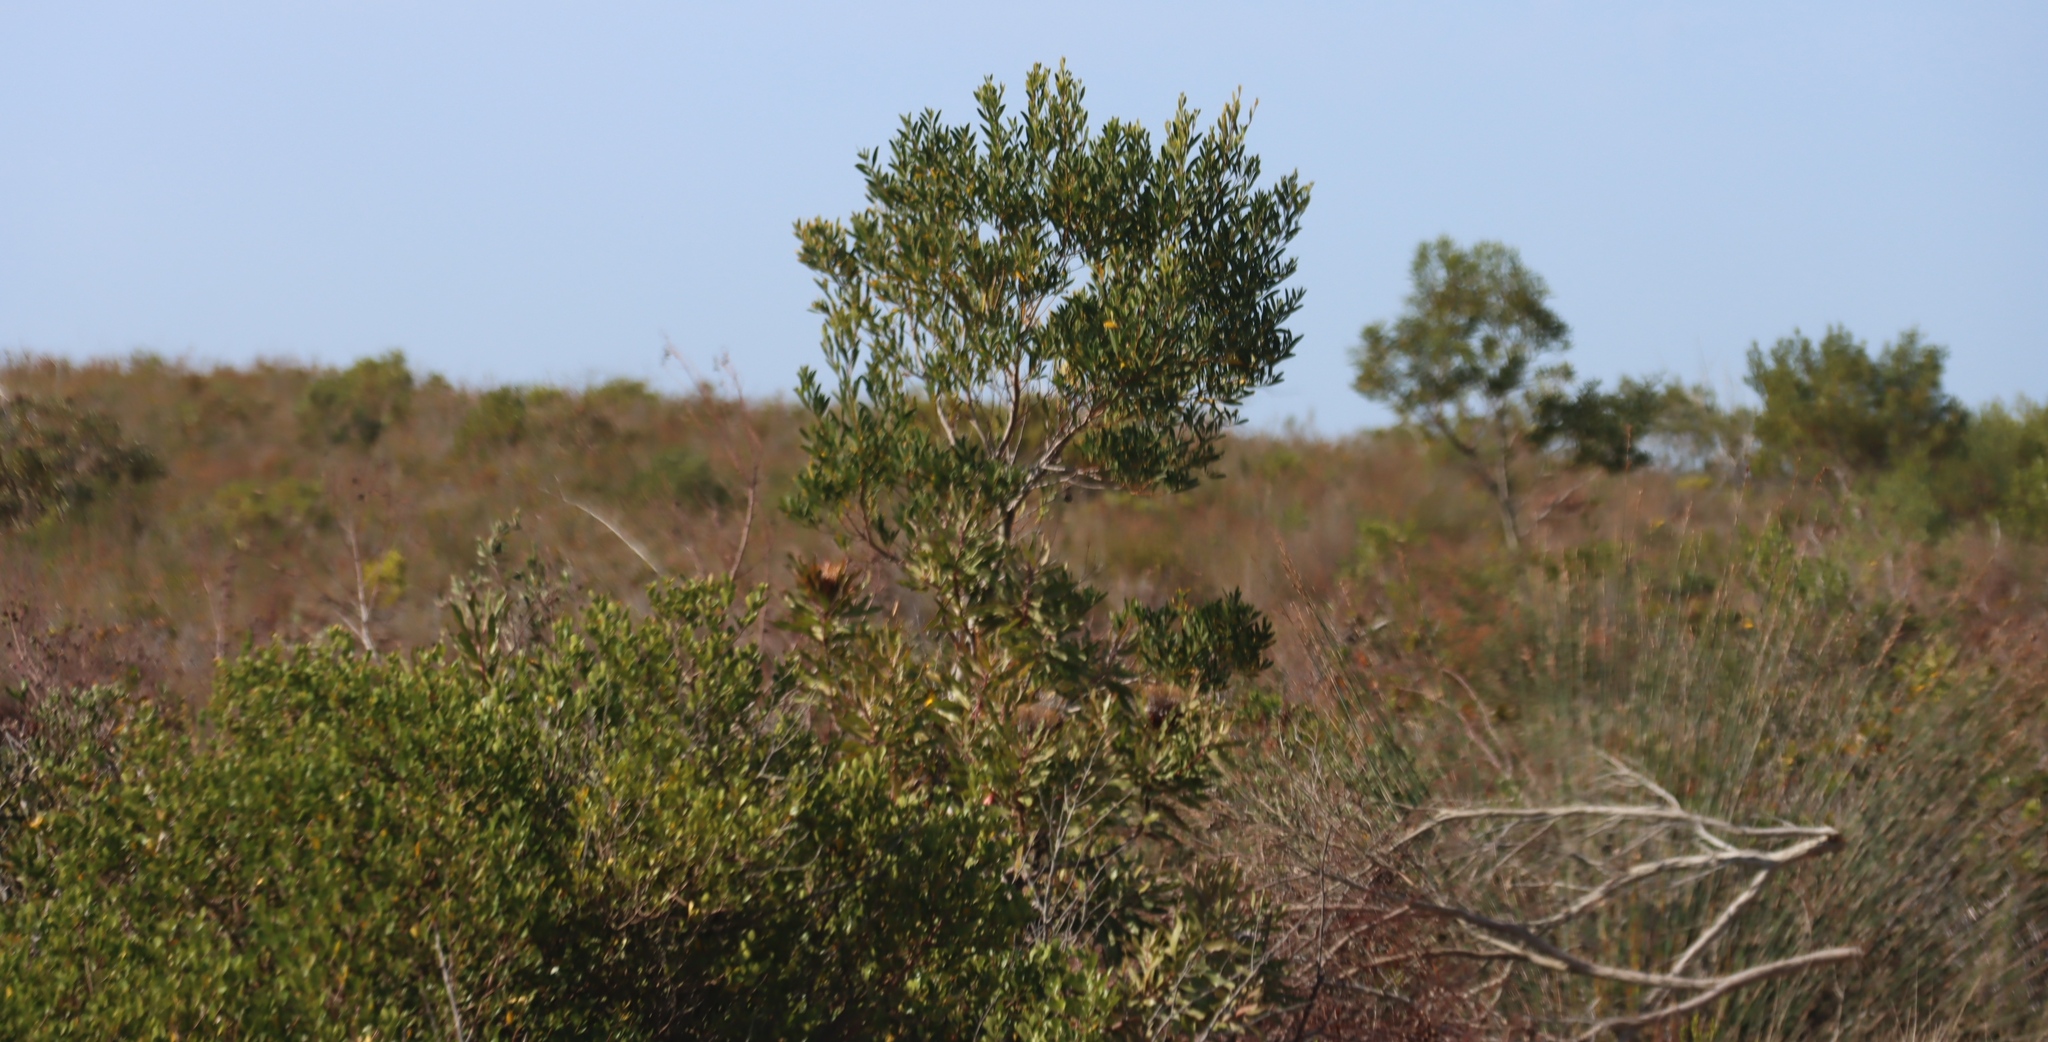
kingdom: Plantae
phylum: Tracheophyta
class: Magnoliopsida
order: Fabales
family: Fabaceae
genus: Acacia
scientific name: Acacia cyclops
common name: Coastal wattle
